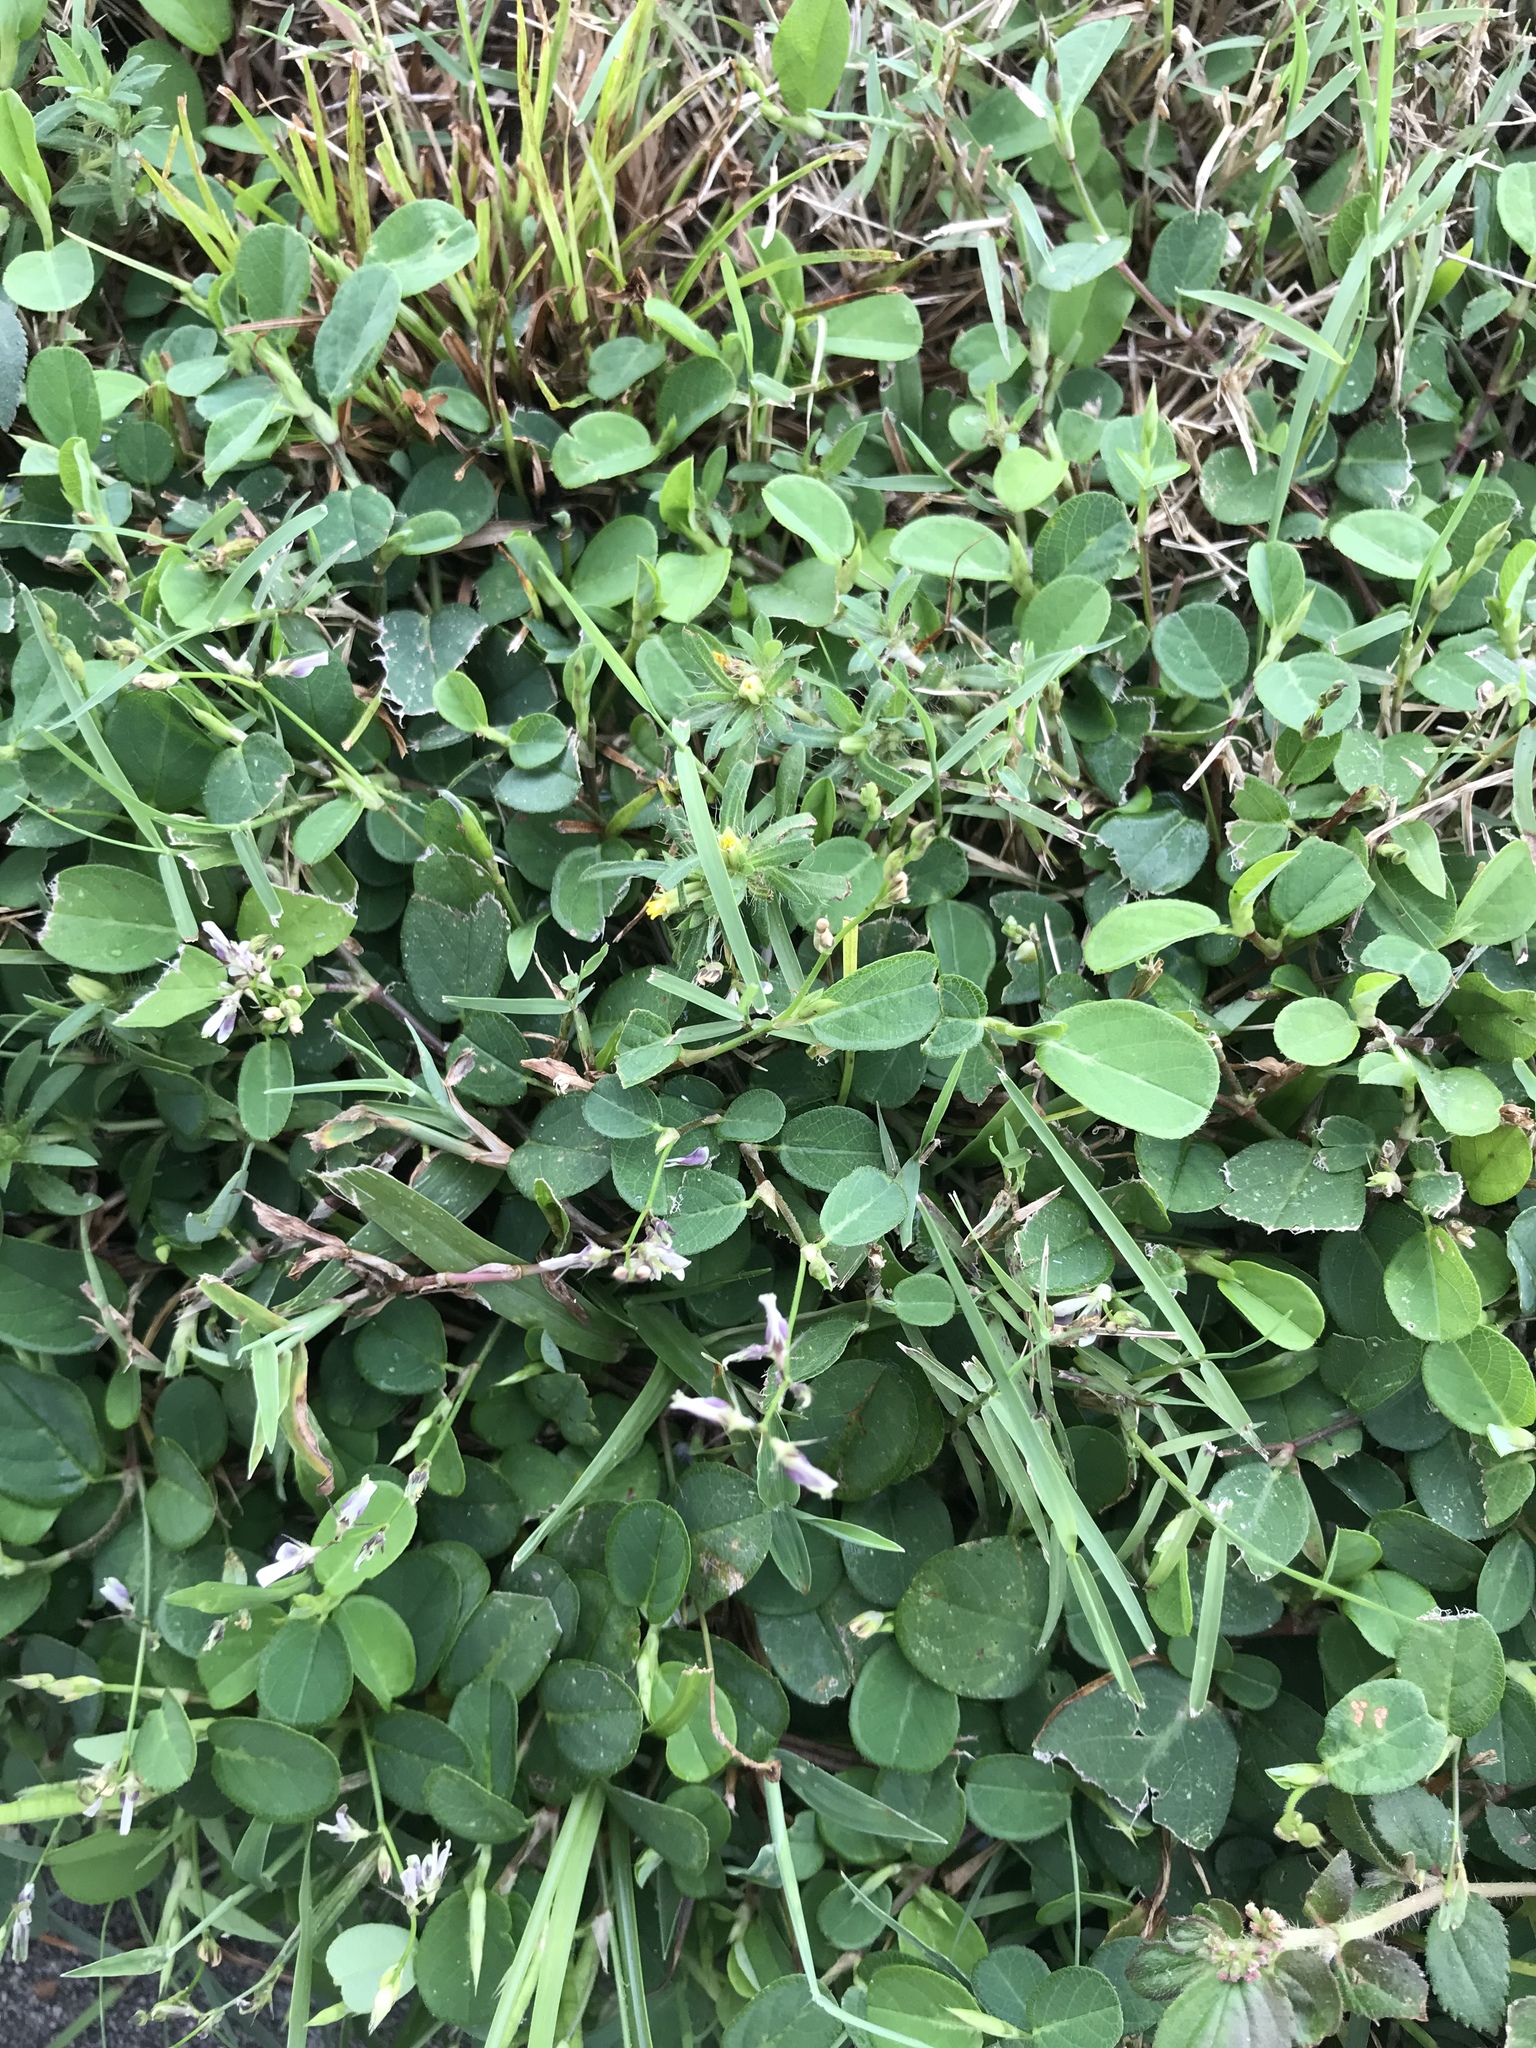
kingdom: Plantae
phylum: Tracheophyta
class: Magnoliopsida
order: Fabales
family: Fabaceae
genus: Alysicarpus
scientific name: Alysicarpus ovalifolius
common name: Alyce clover
